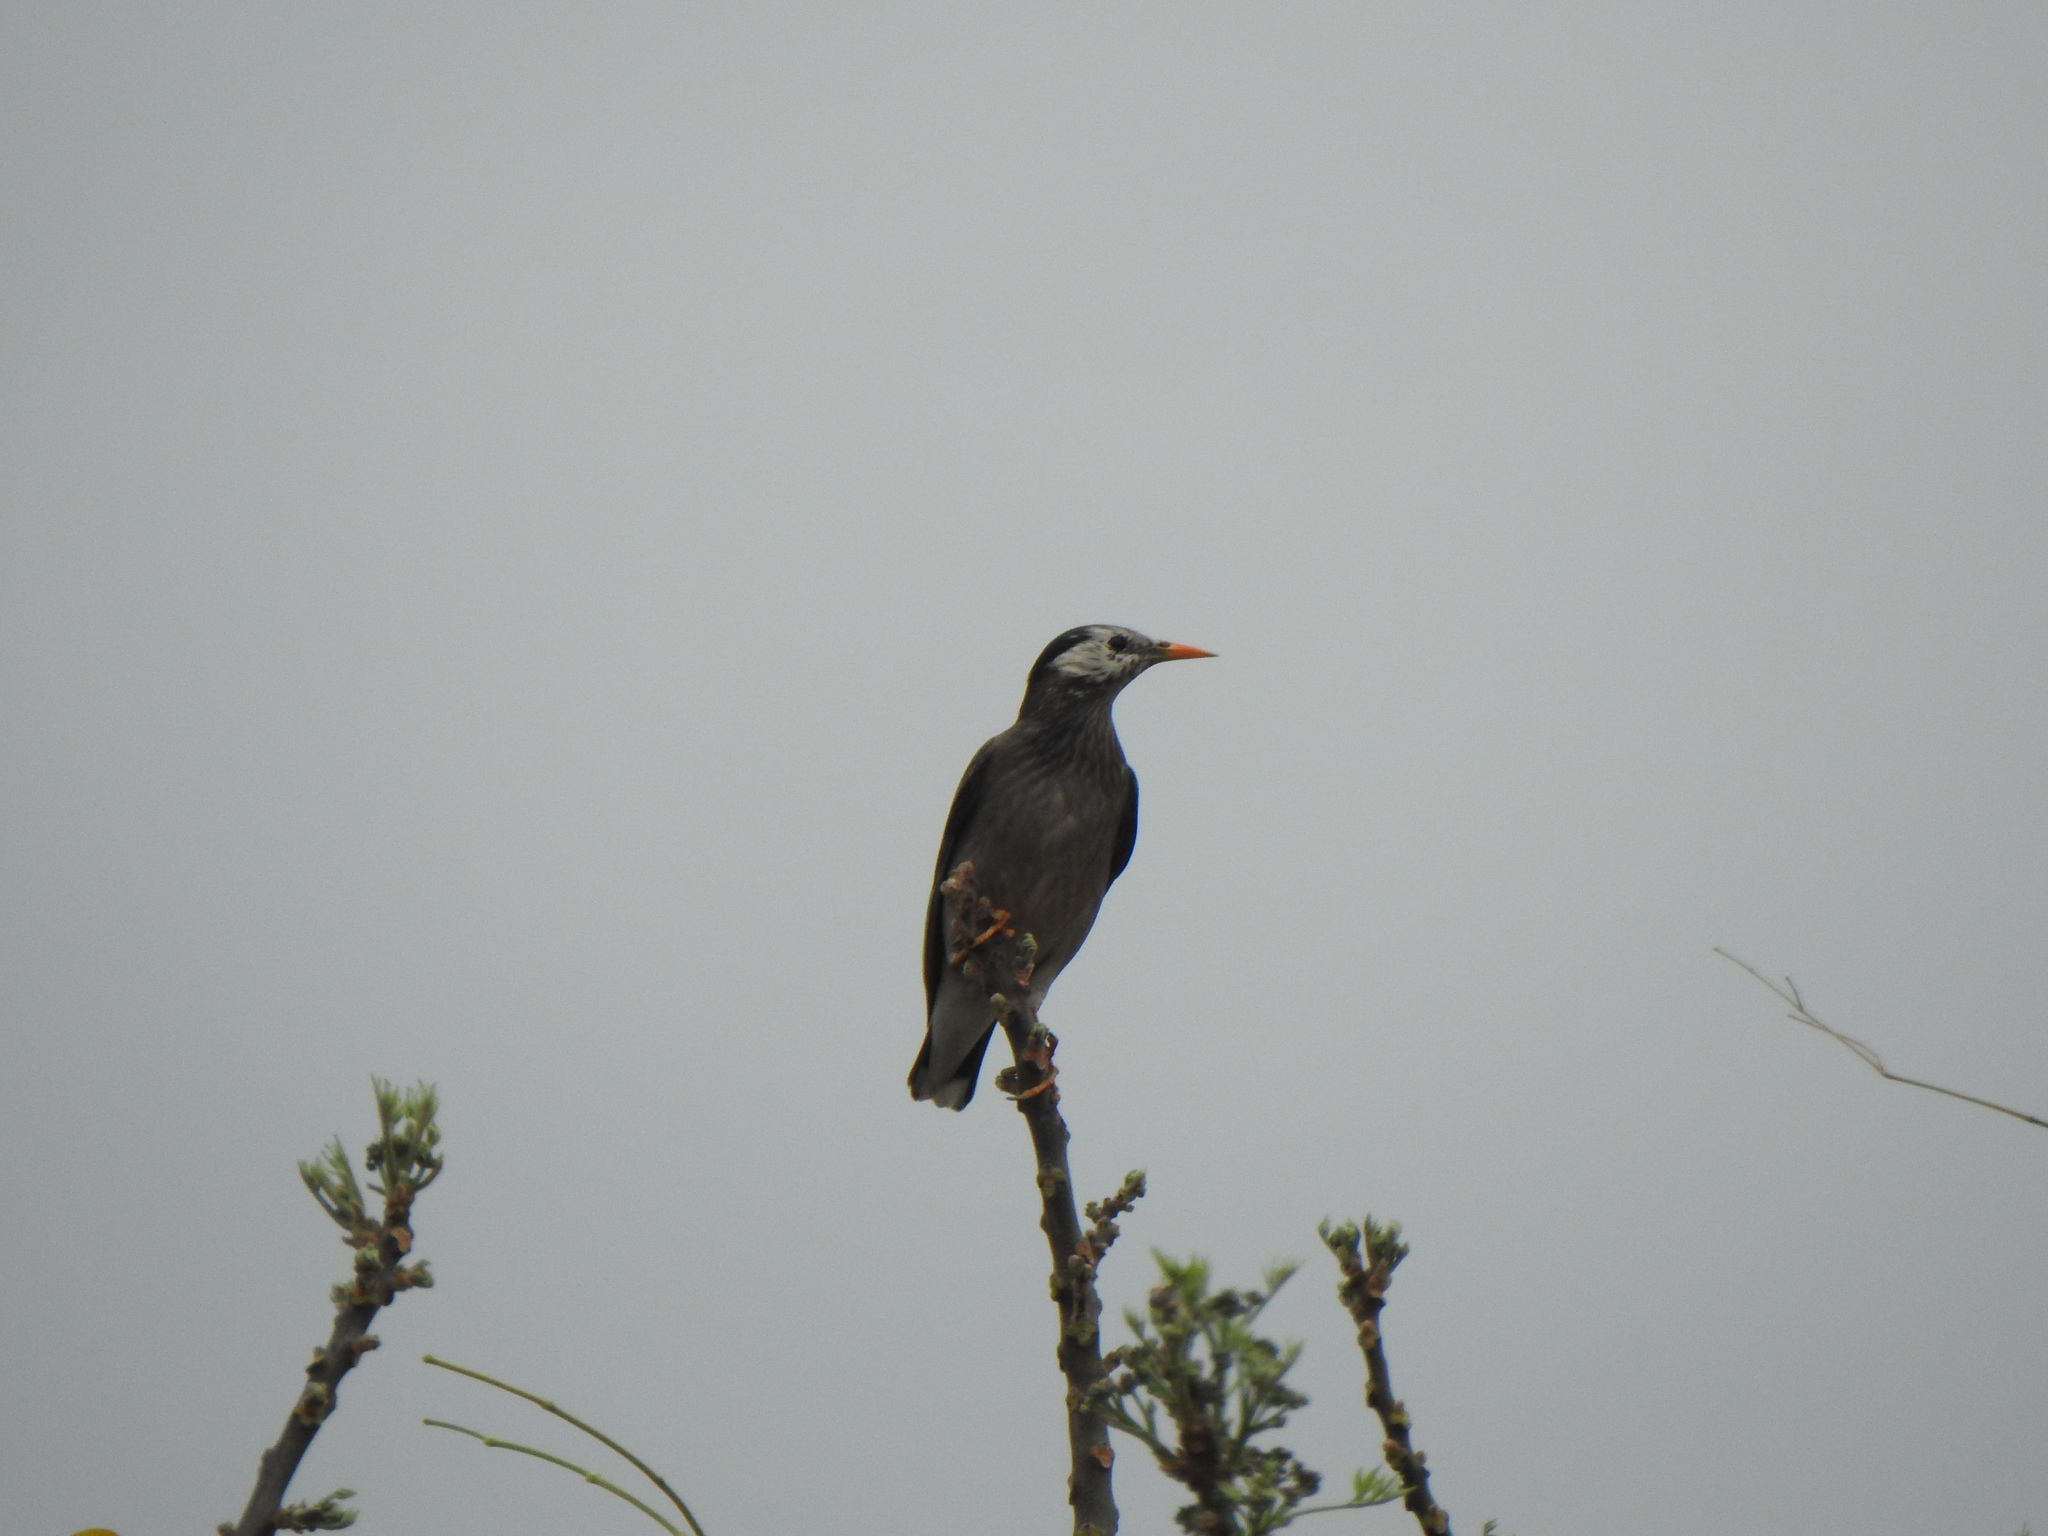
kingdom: Animalia
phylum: Chordata
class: Aves
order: Passeriformes
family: Sturnidae
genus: Spodiopsar
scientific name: Spodiopsar cineraceus
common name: White-cheeked starling
